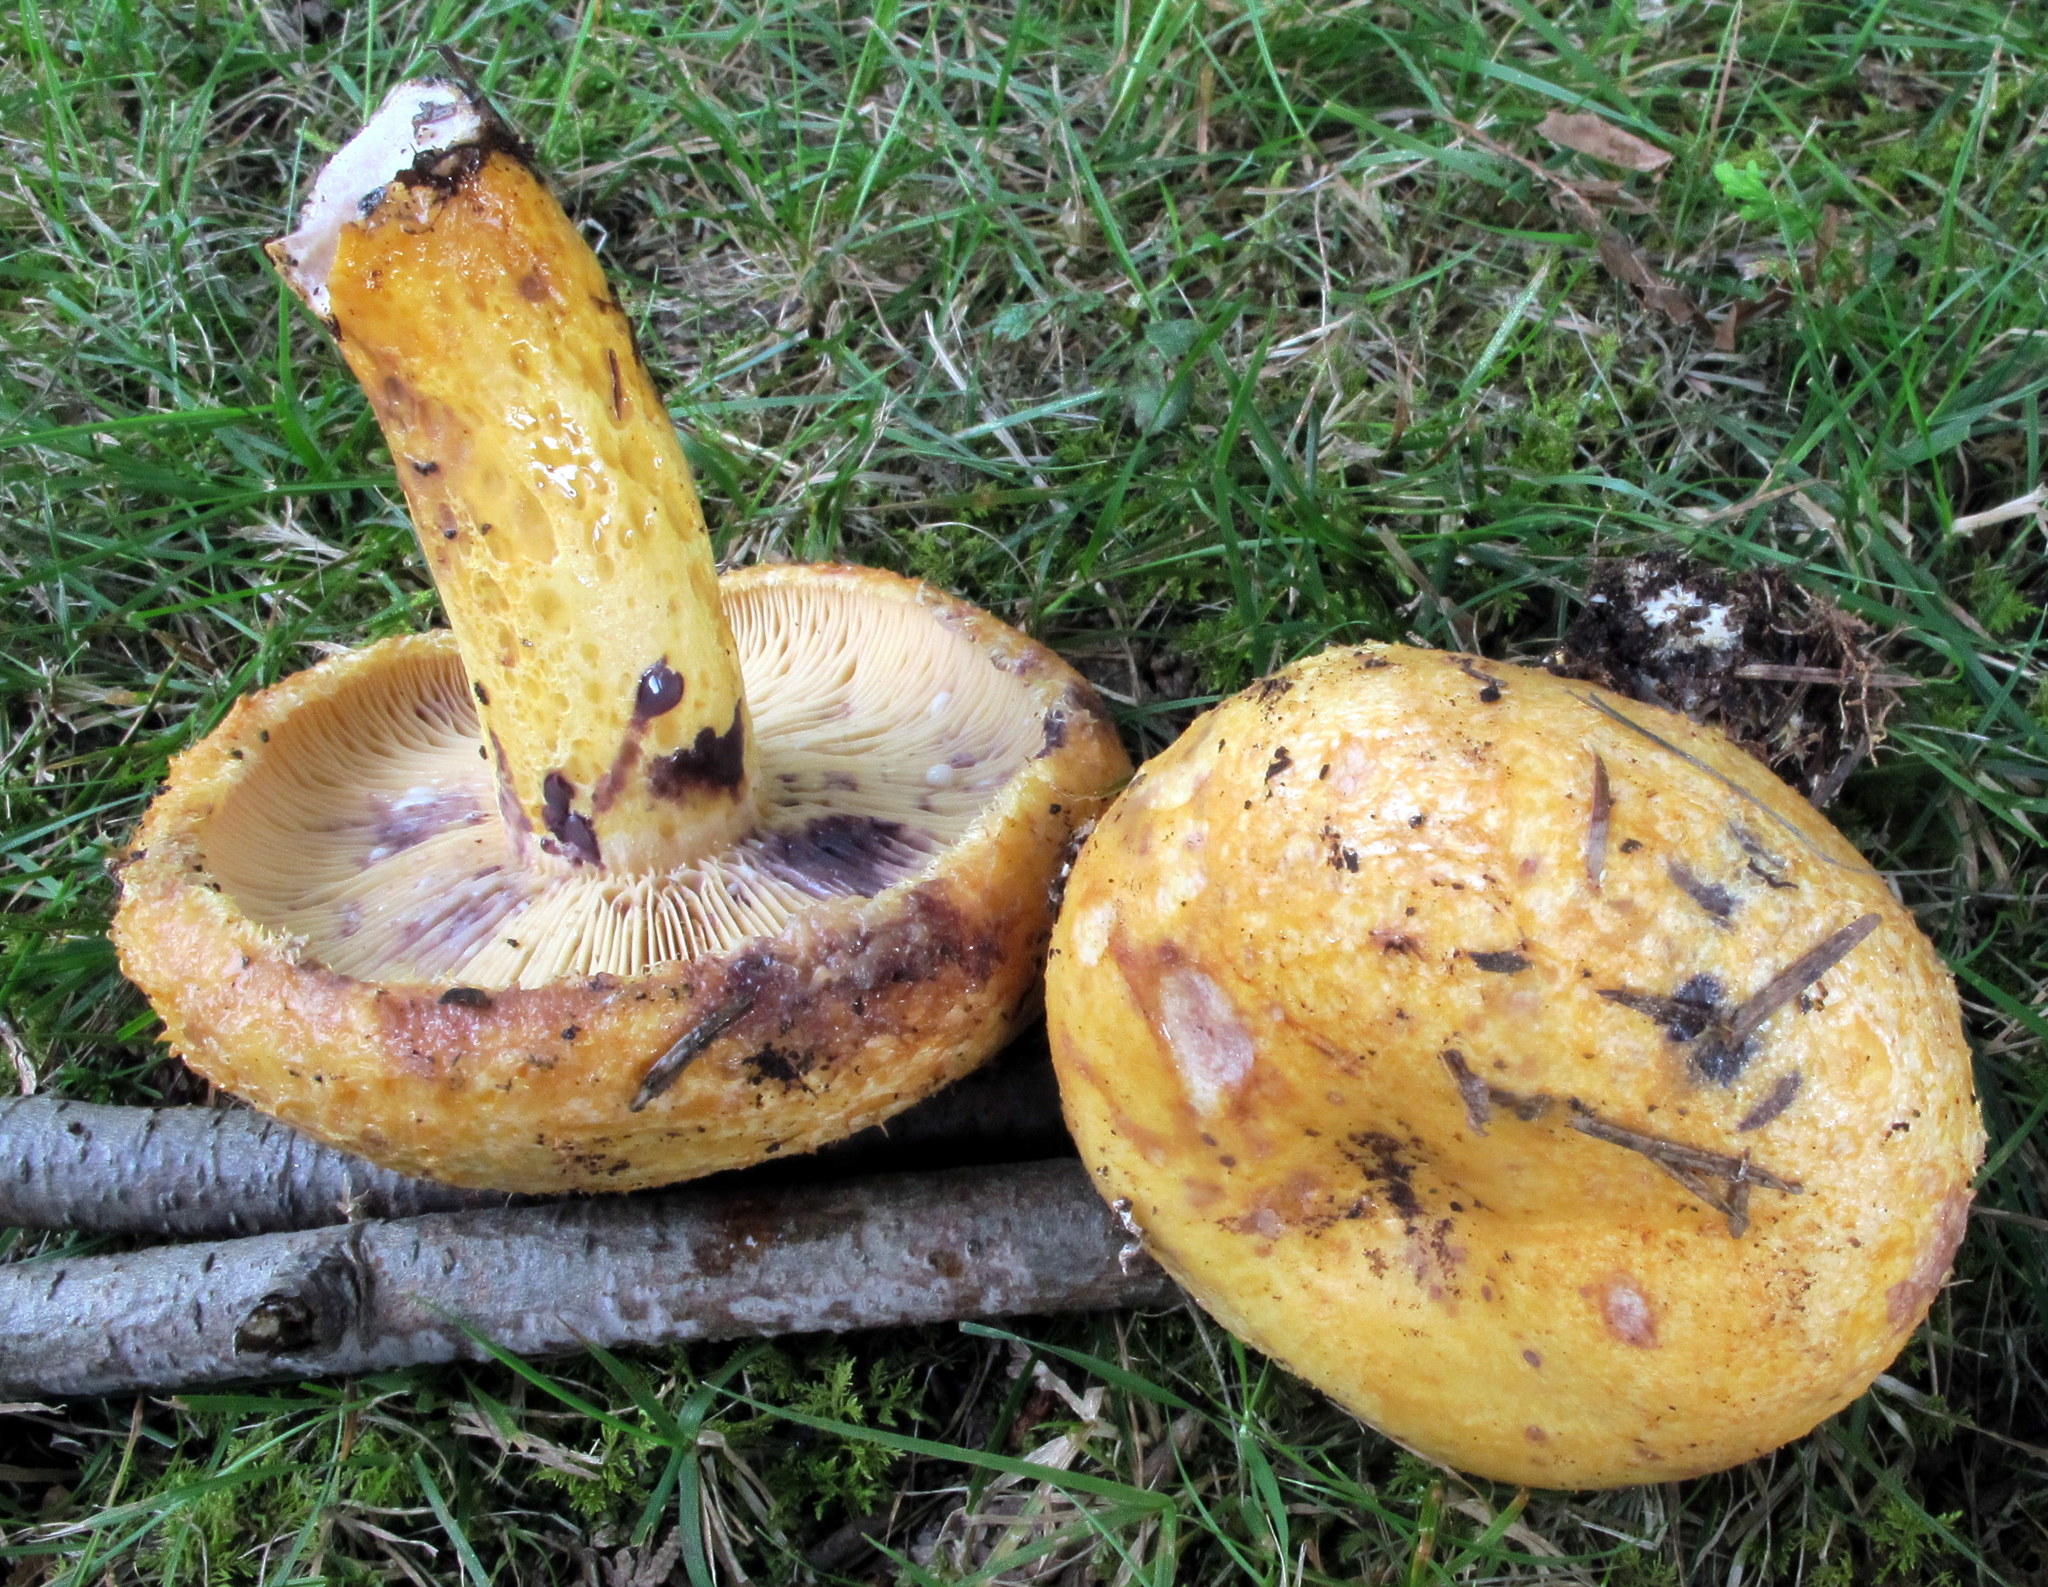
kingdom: Fungi
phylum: Basidiomycota
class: Agaricomycetes
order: Russulales
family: Russulaceae
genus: Lactarius
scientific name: Lactarius repraesentaneus
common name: Yellow bearded milkcap
